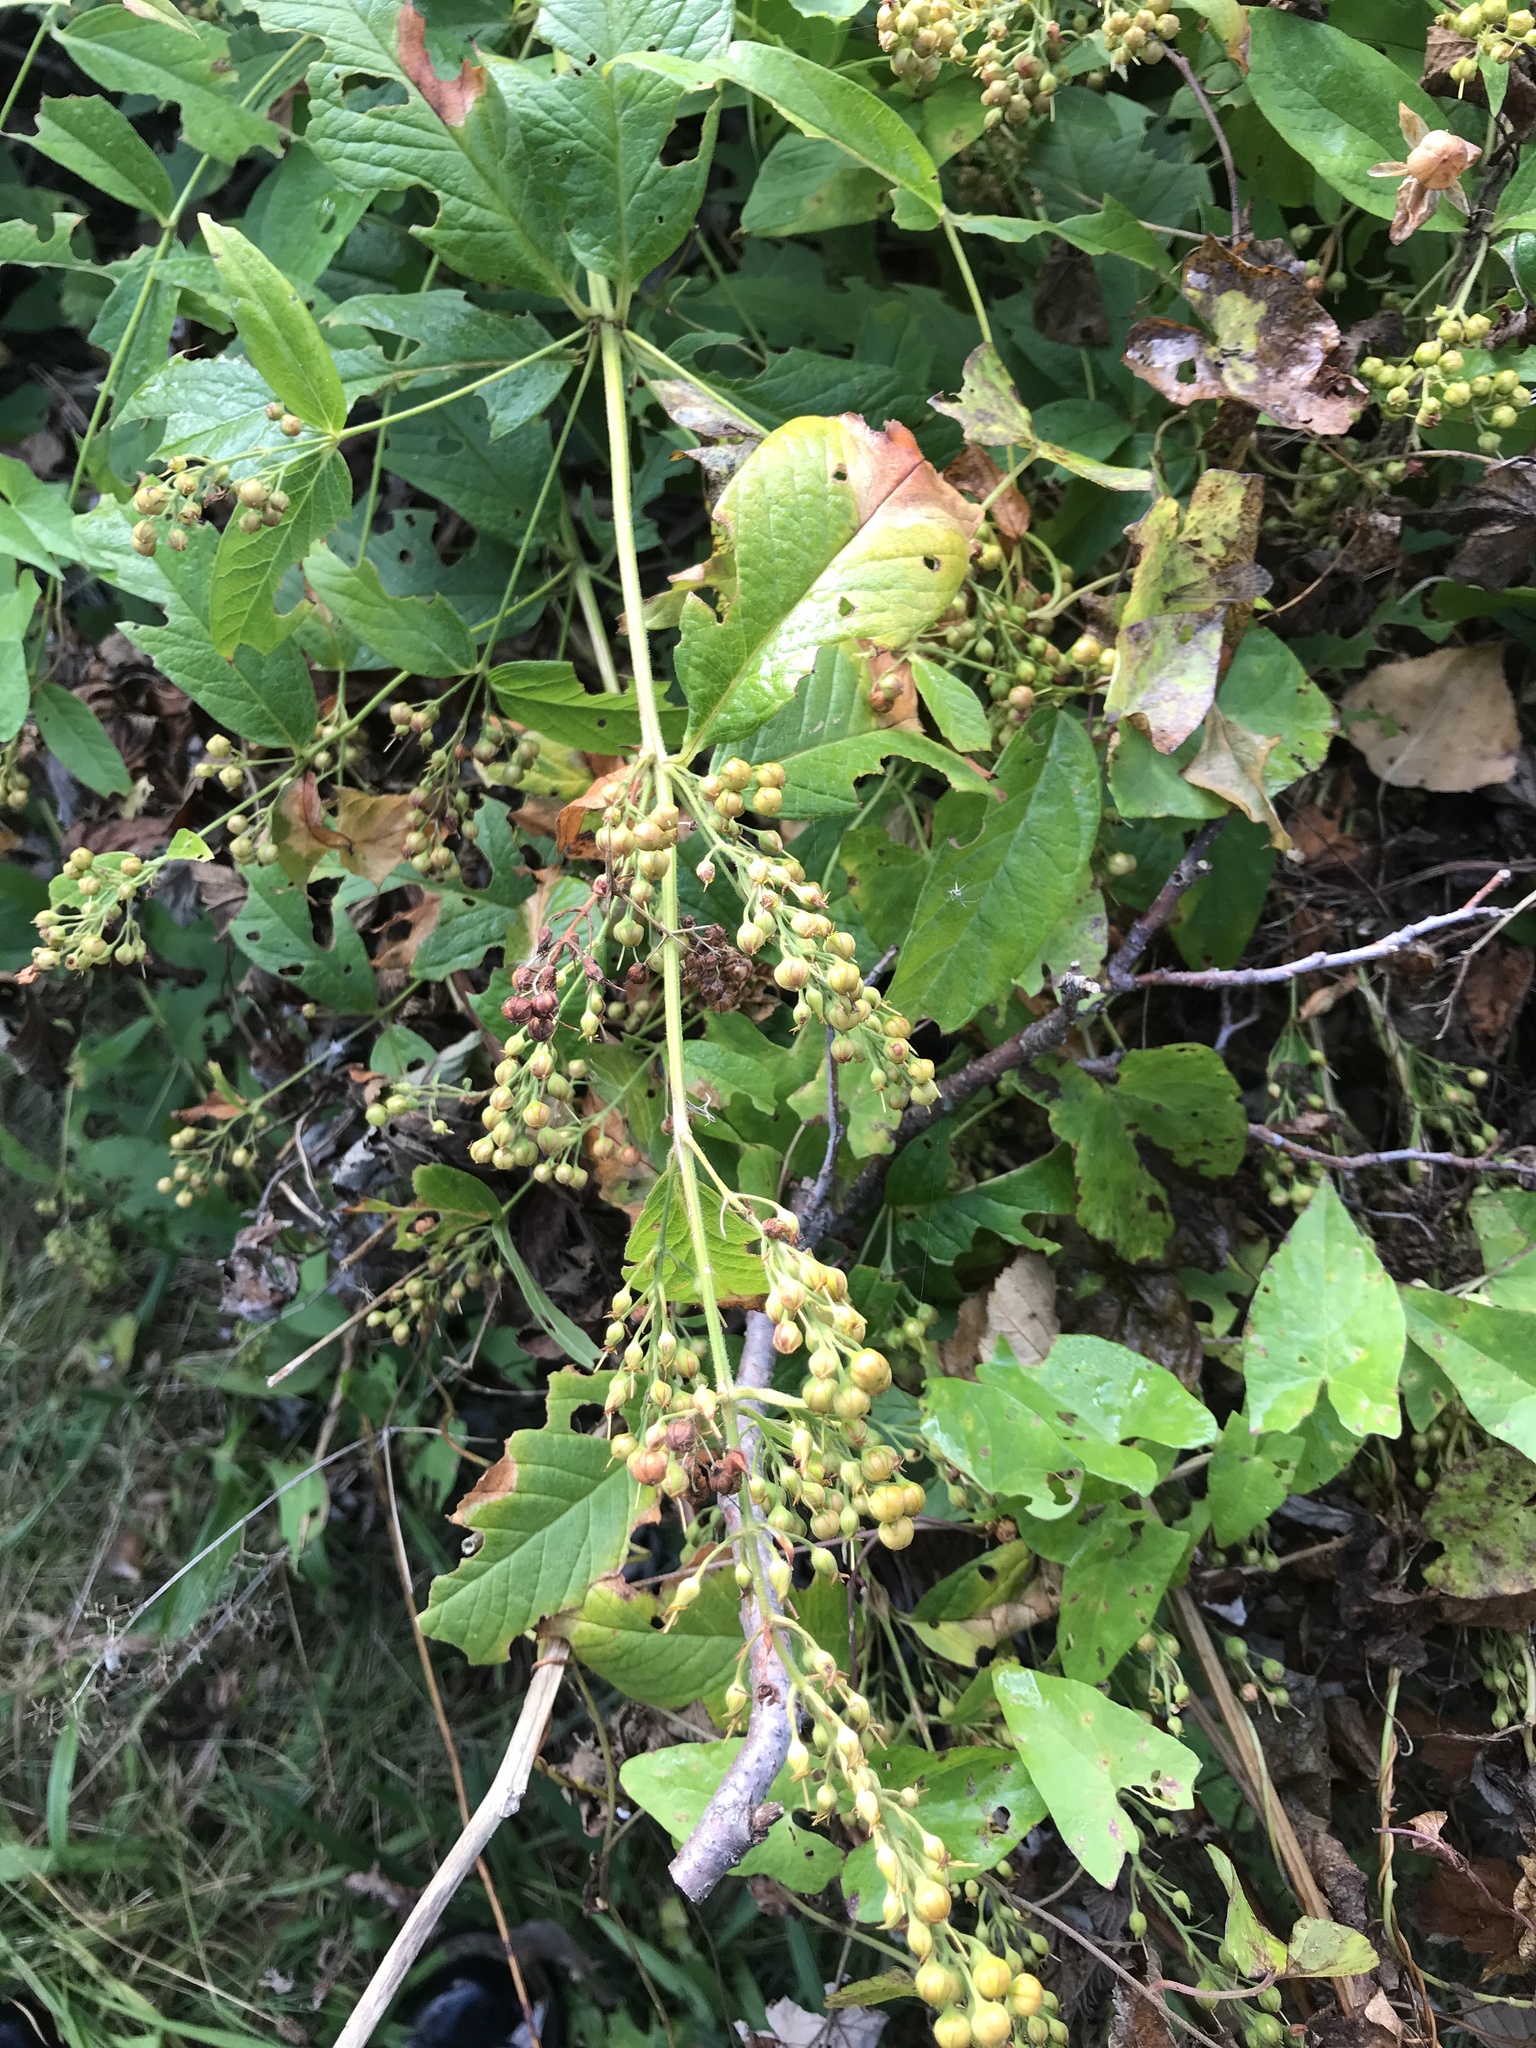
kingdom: Plantae
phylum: Tracheophyta
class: Magnoliopsida
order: Ericales
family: Primulaceae
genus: Lysimachia
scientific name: Lysimachia vulgaris
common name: Yellow loosestrife
